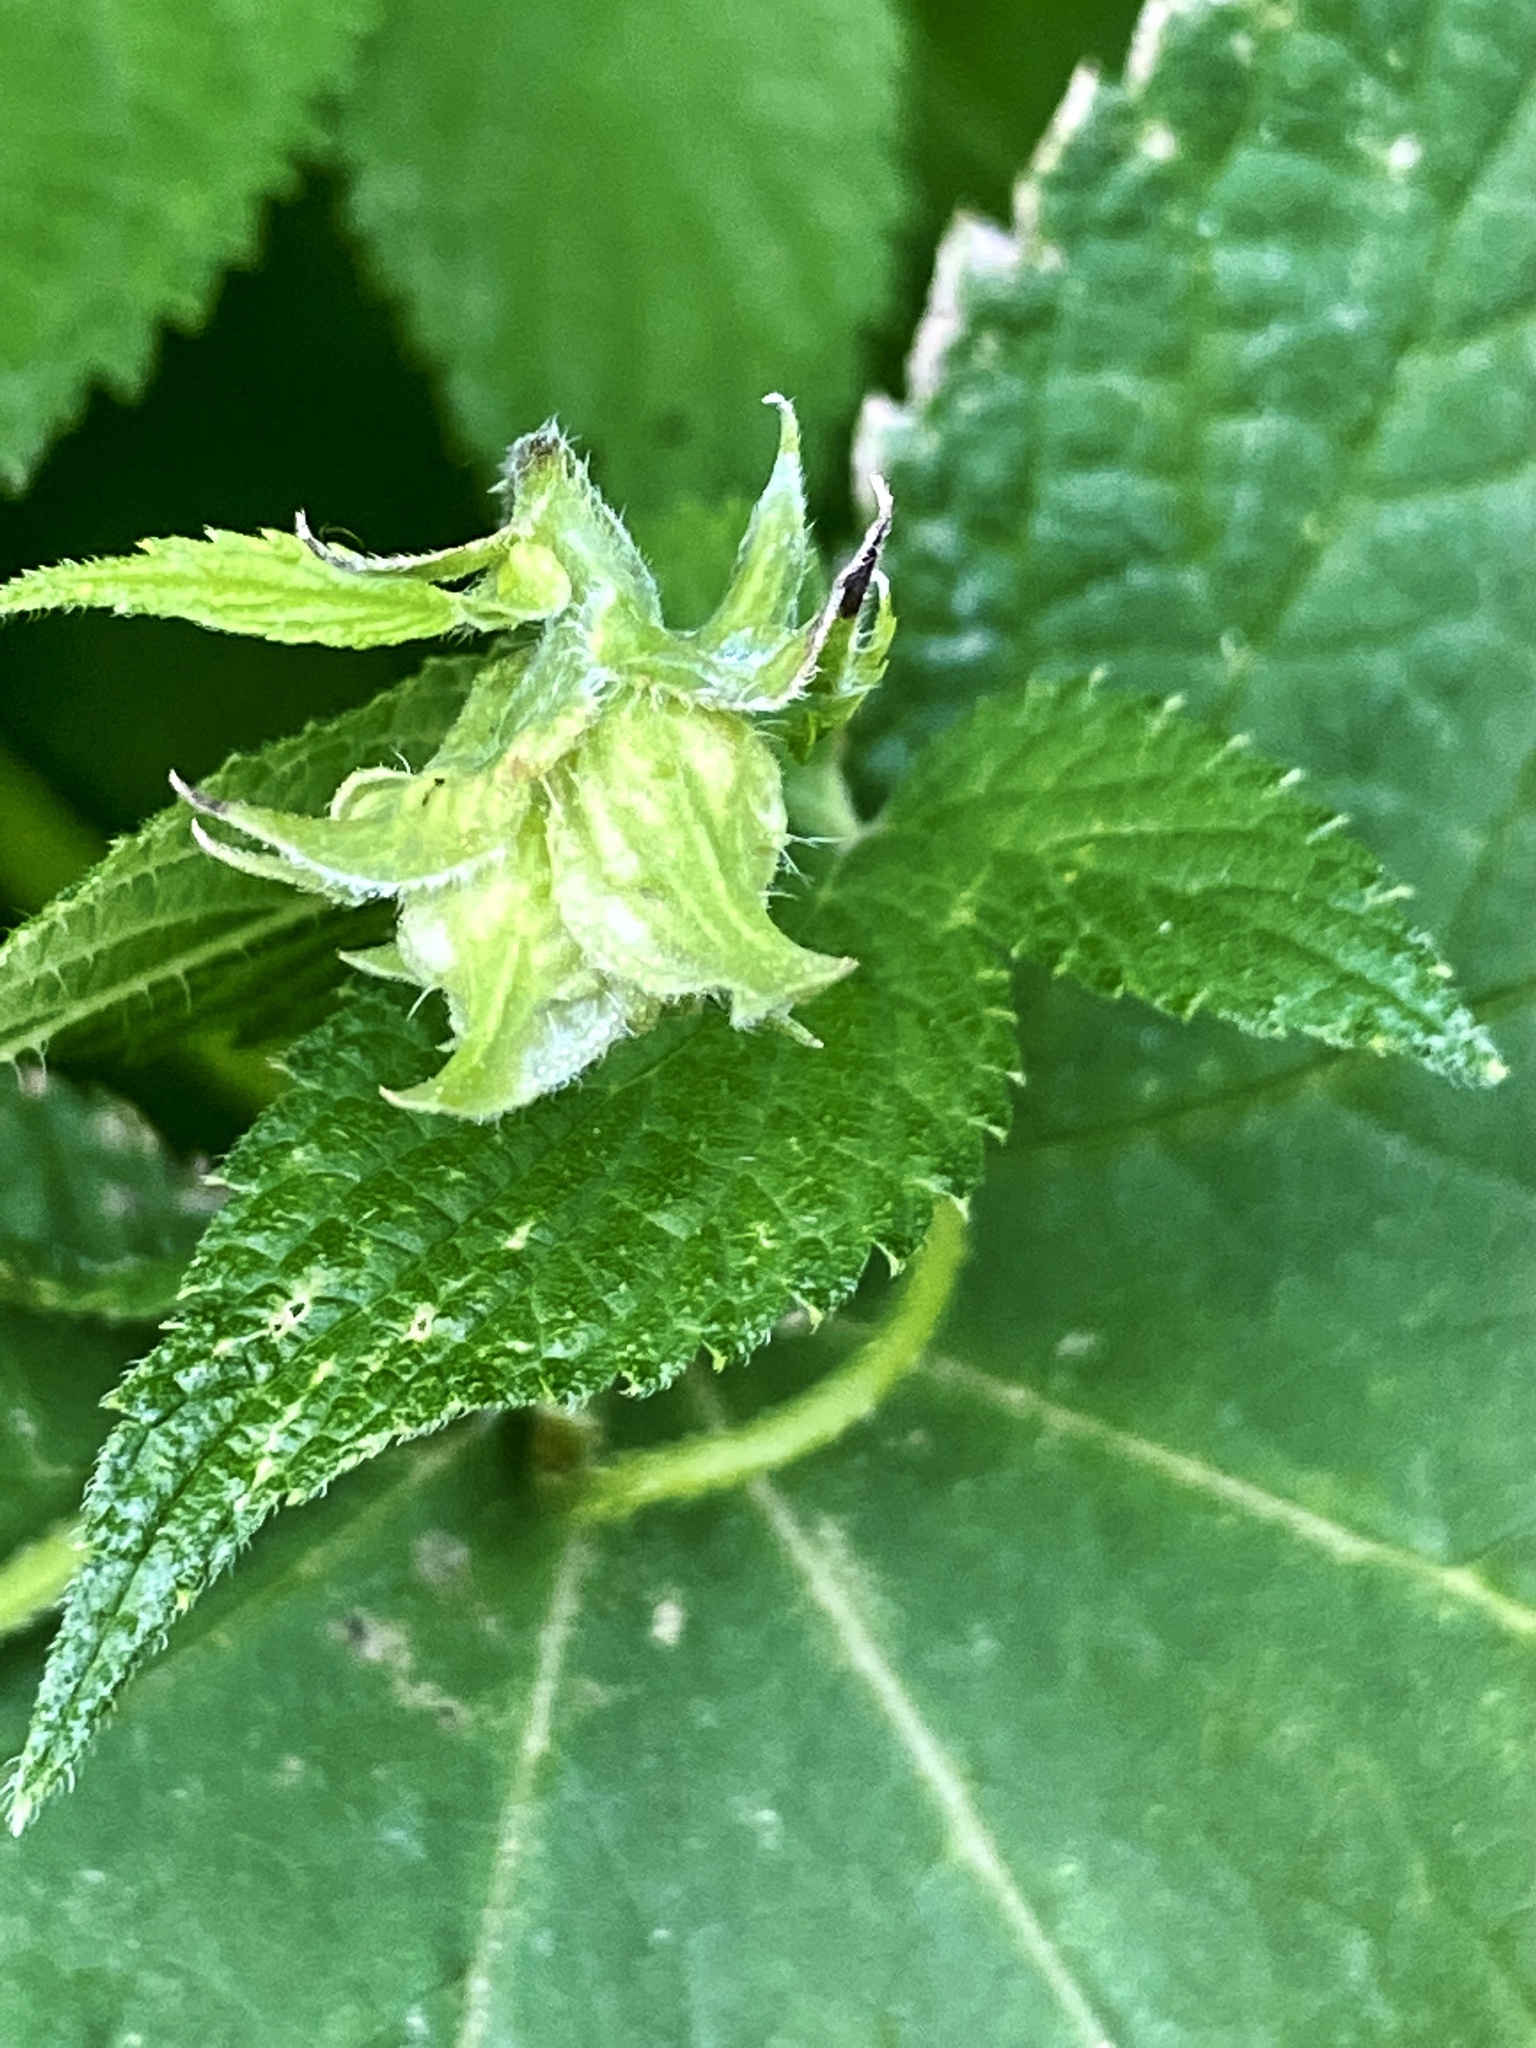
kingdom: Plantae
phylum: Tracheophyta
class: Magnoliopsida
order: Rosales
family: Cannabaceae
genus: Humulus
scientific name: Humulus scandens
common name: Japanese hop
